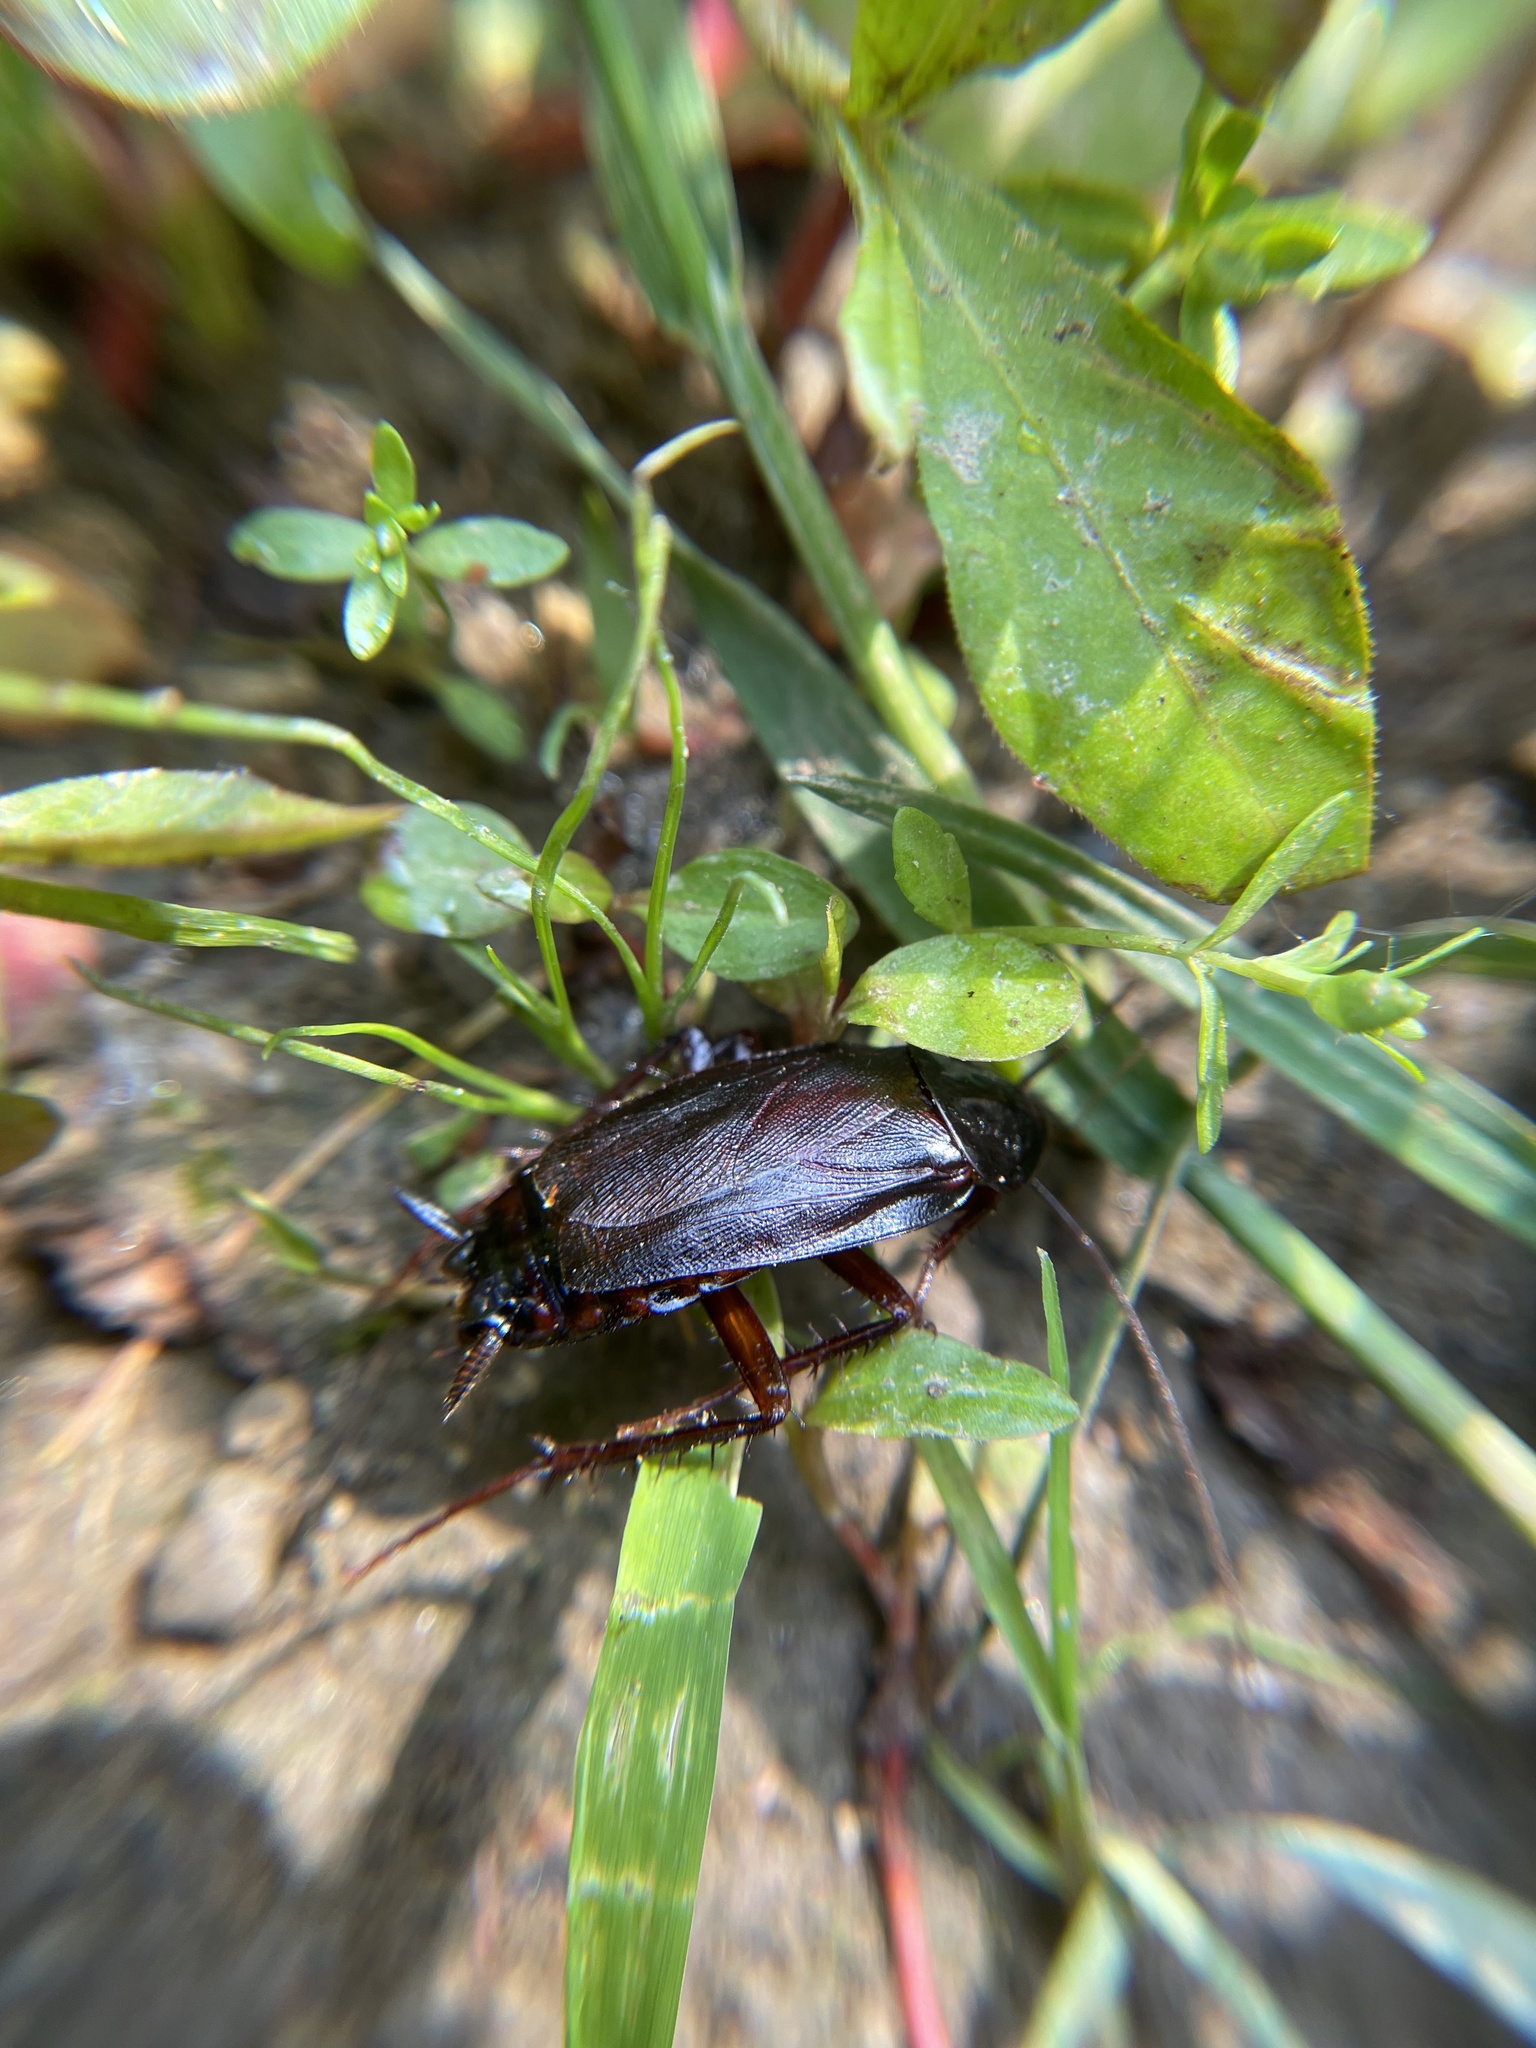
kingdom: Animalia
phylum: Arthropoda
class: Insecta
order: Blattodea
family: Blattidae
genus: Blatta
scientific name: Blatta orientalis
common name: Oriental cockroach
